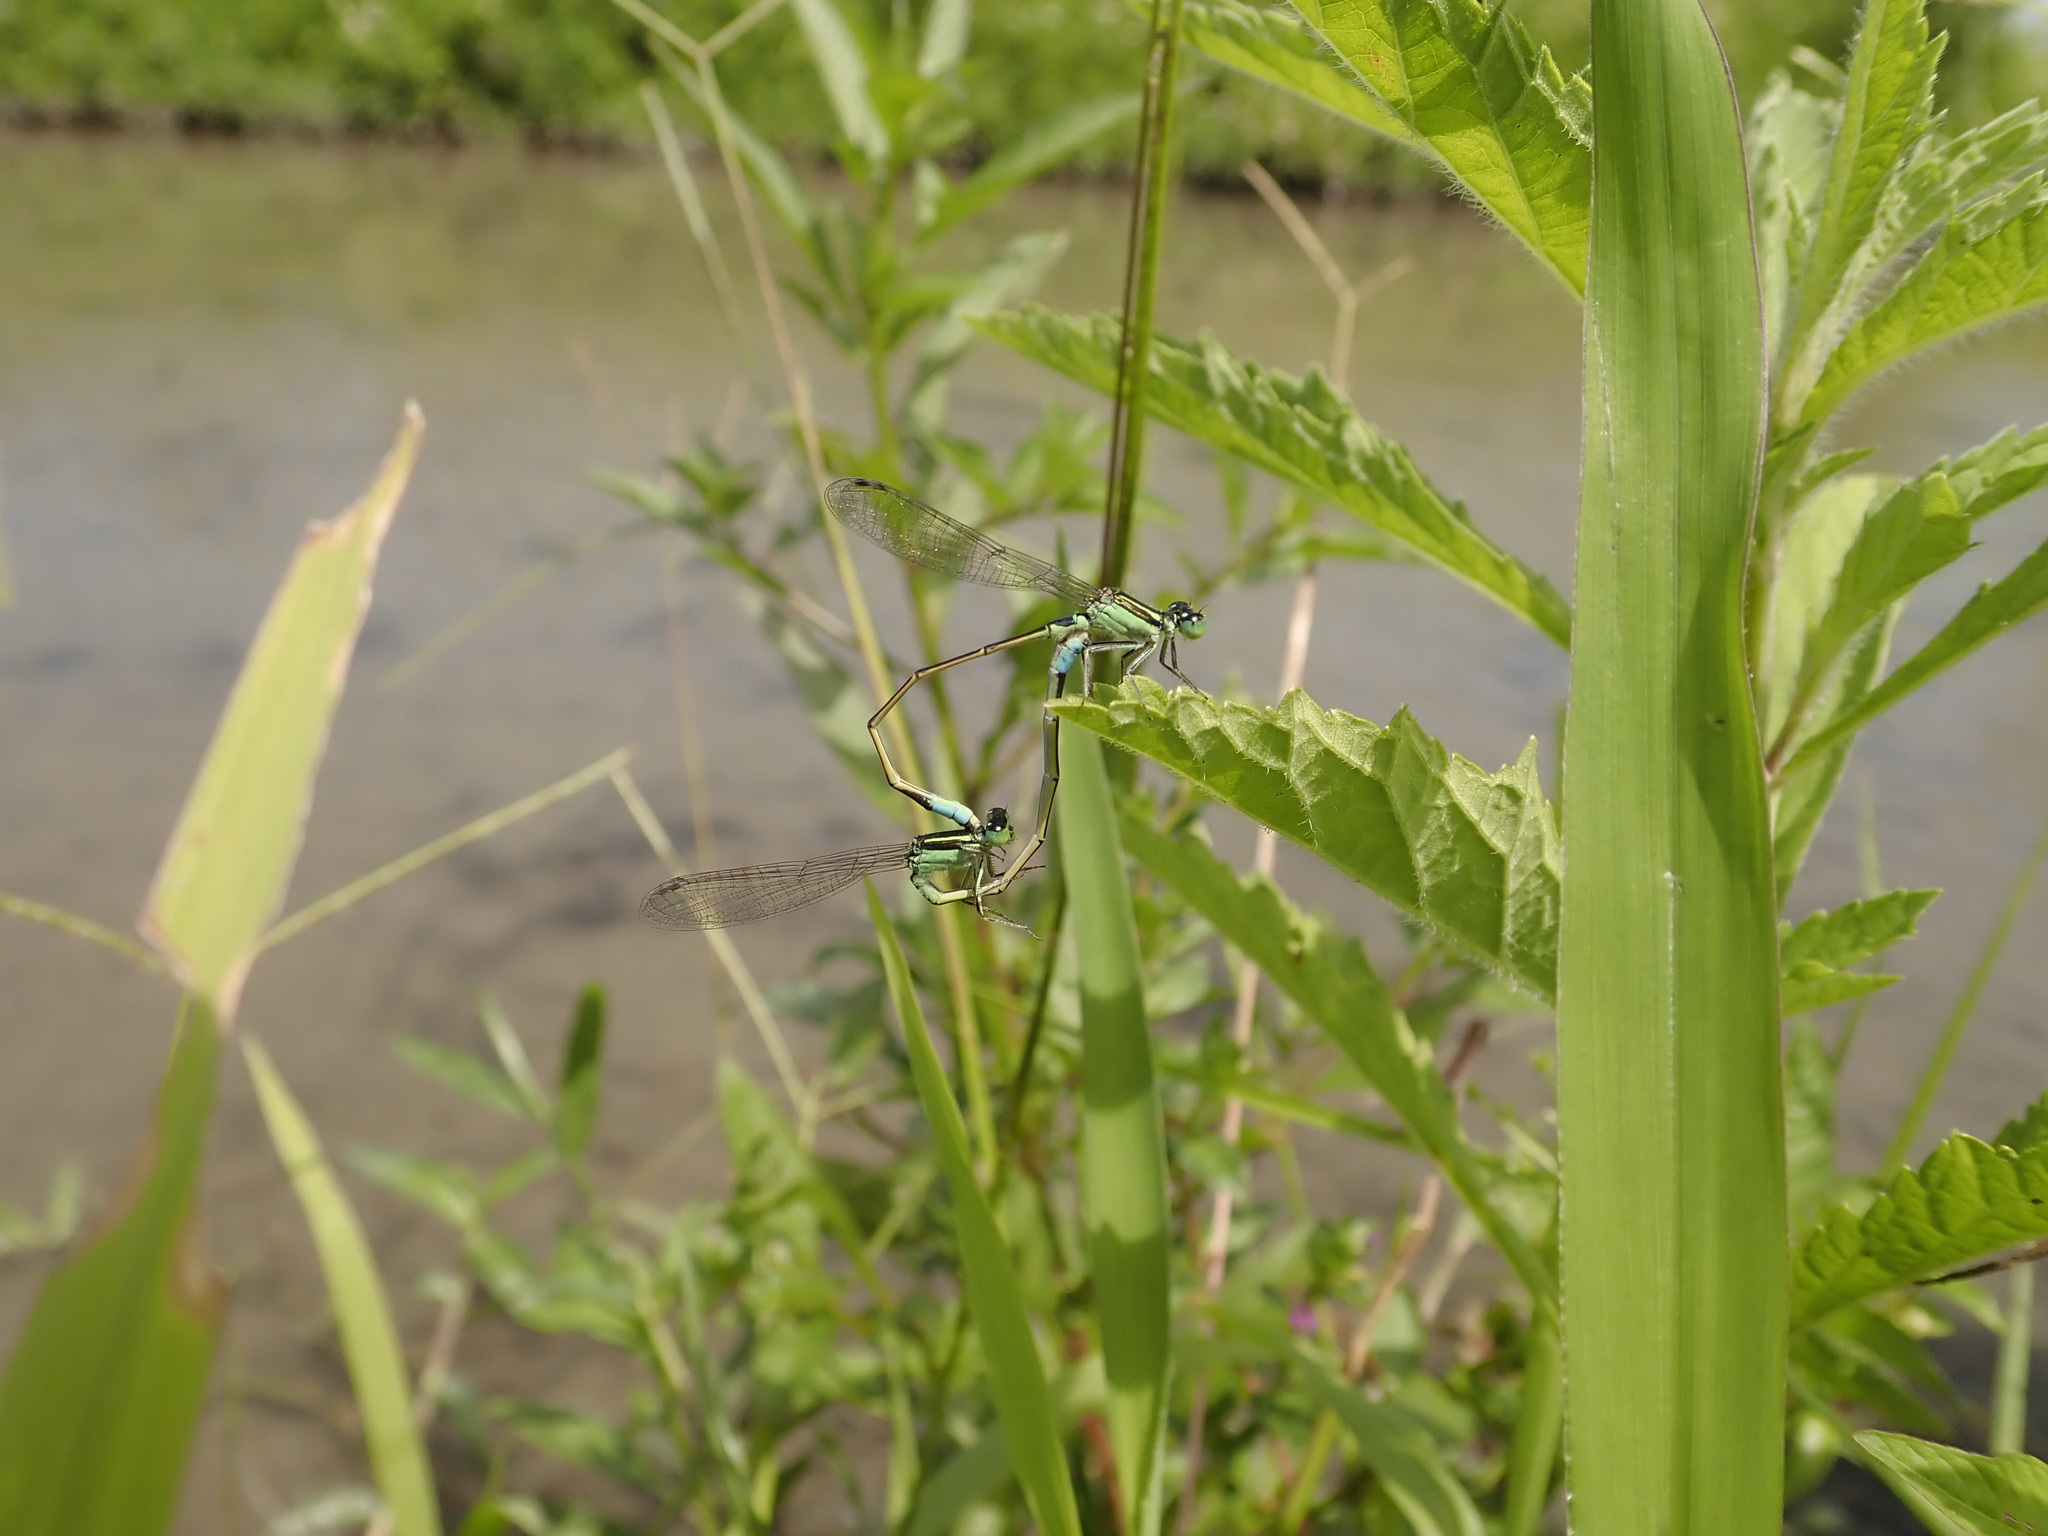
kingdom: Animalia
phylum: Arthropoda
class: Insecta
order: Odonata
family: Coenagrionidae
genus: Ischnura
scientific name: Ischnura senegalensis
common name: Tropical bluetail
